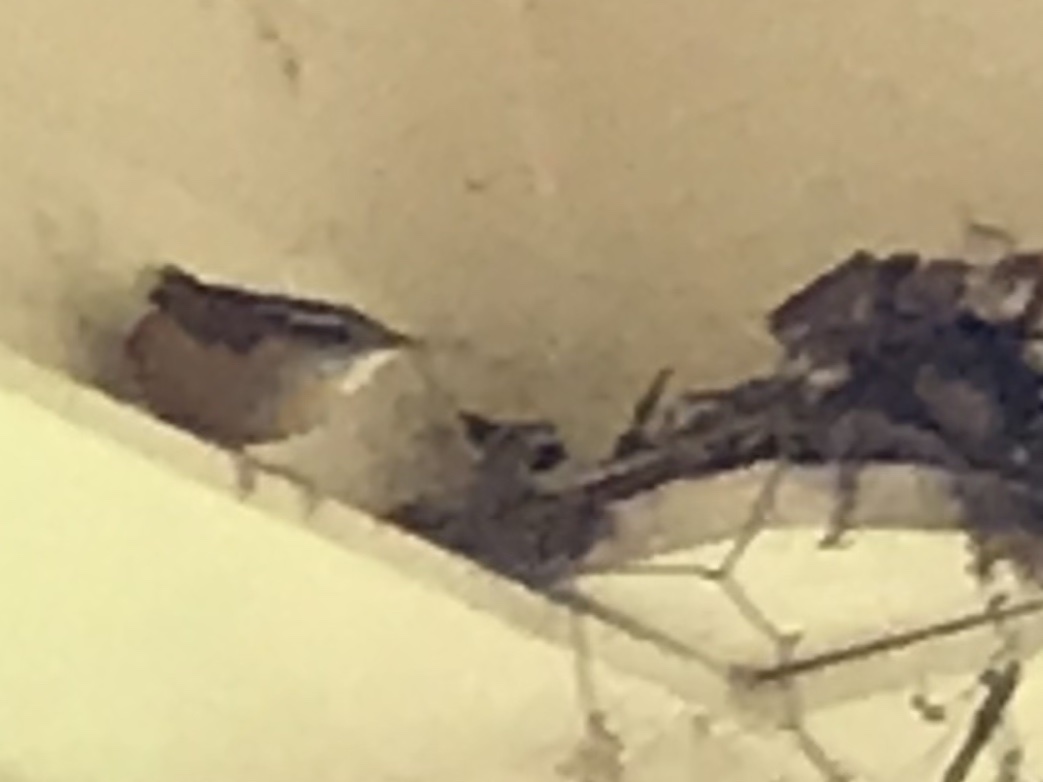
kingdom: Animalia
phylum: Chordata
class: Aves
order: Passeriformes
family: Troglodytidae
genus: Thryothorus
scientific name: Thryothorus ludovicianus
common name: Carolina wren
